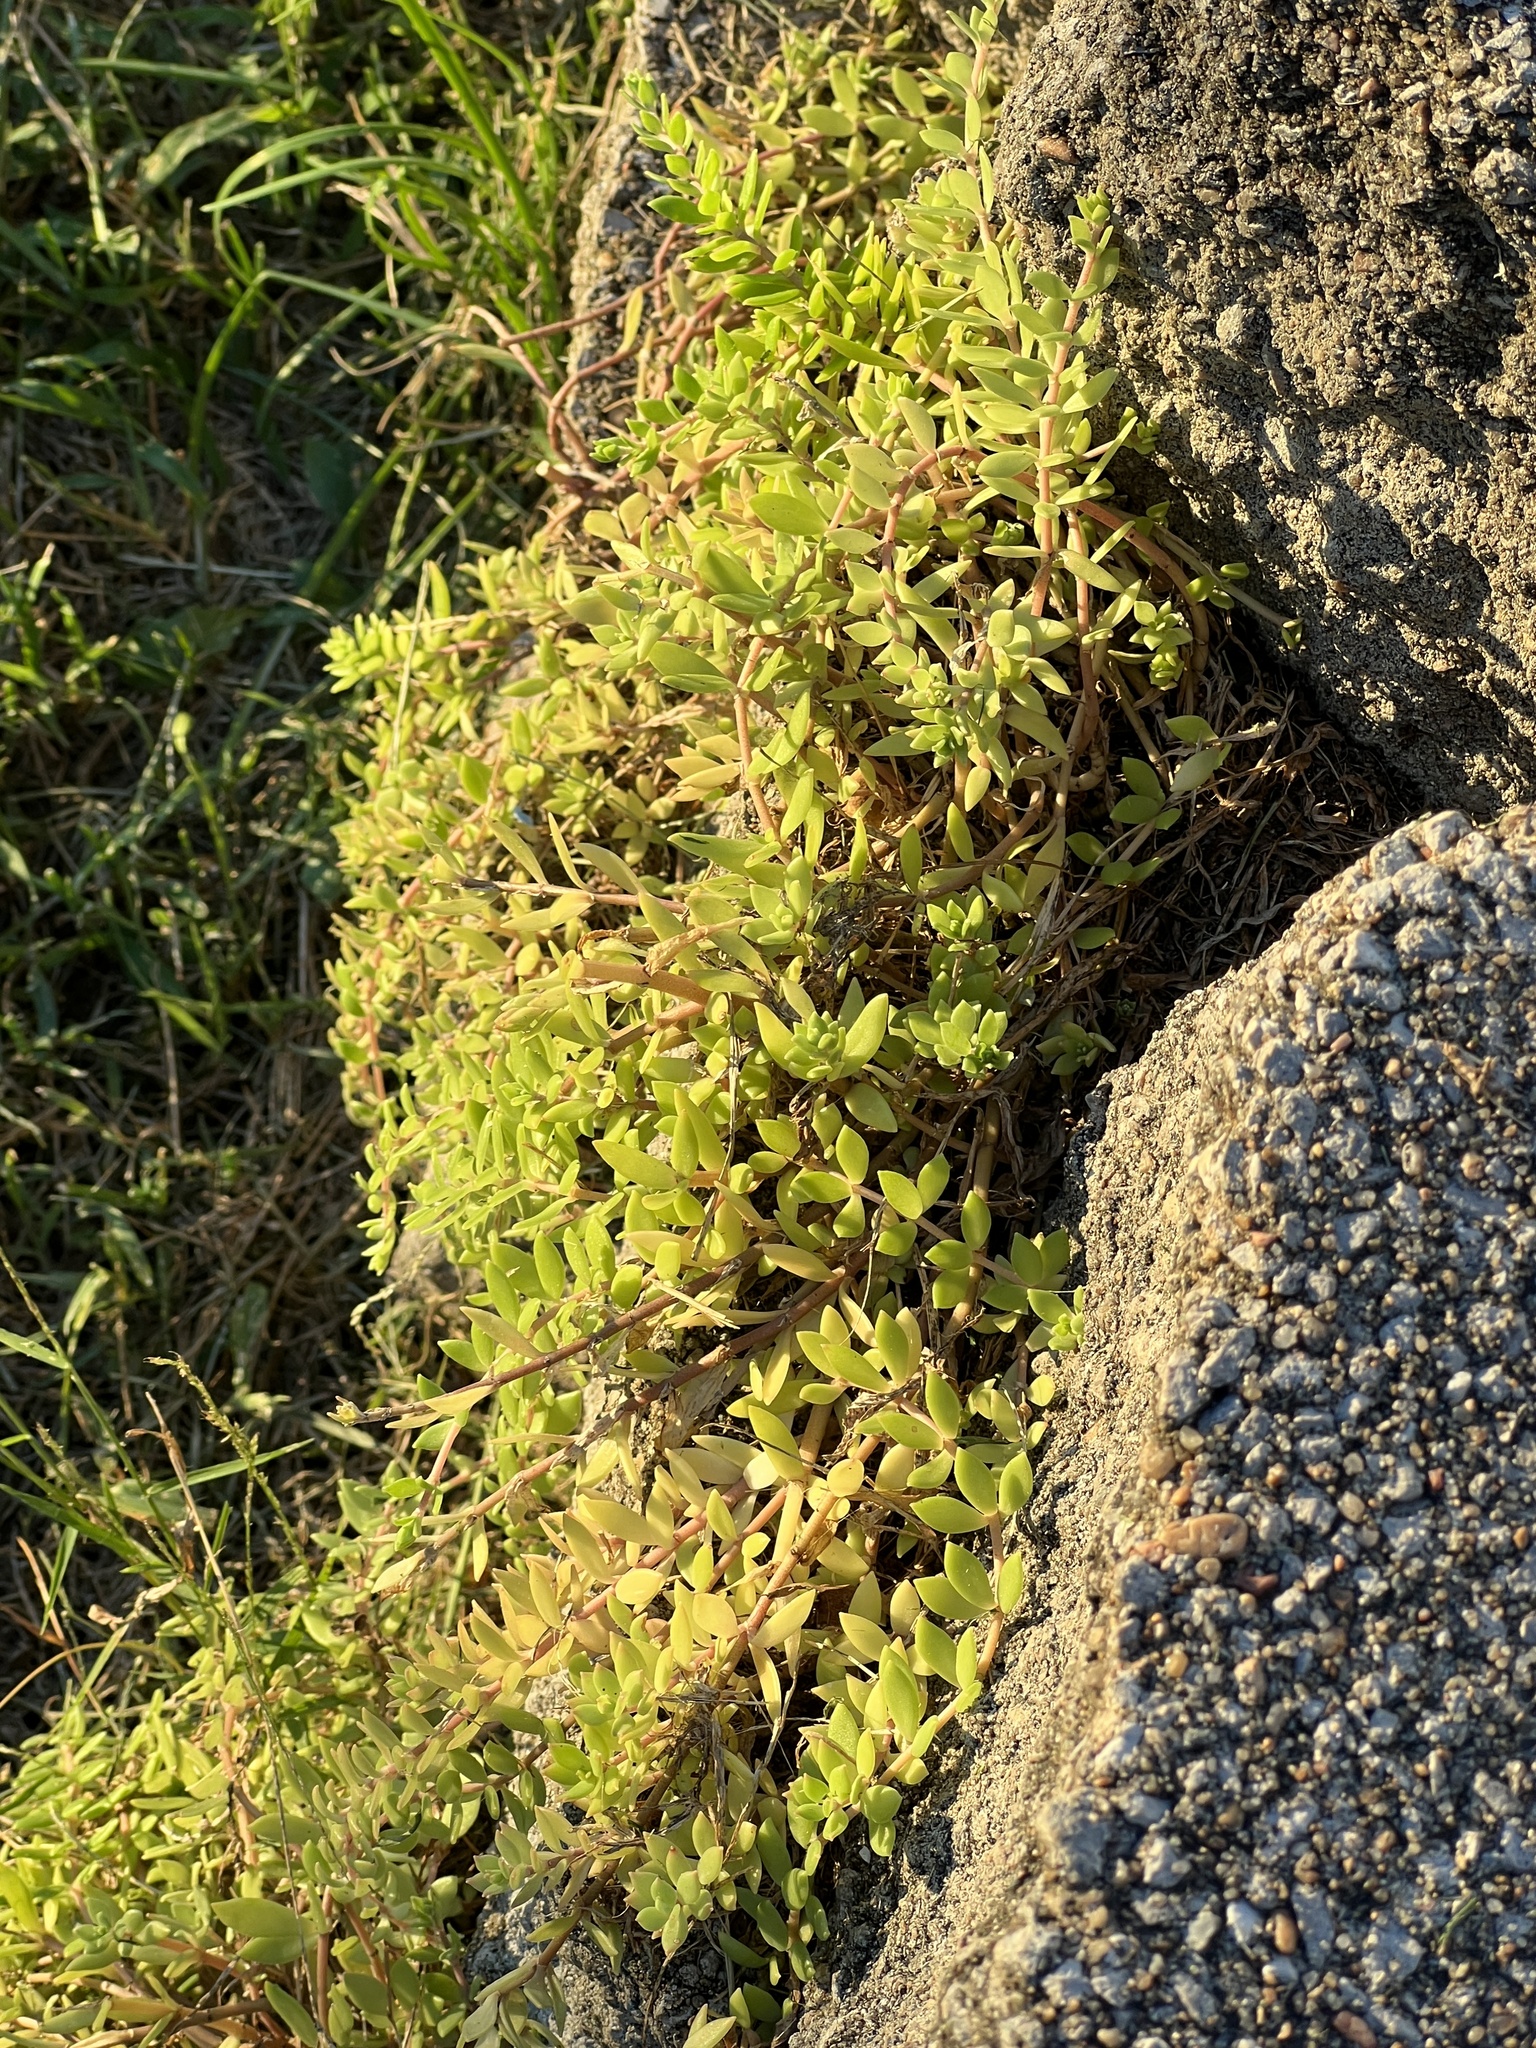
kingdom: Plantae
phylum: Tracheophyta
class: Magnoliopsida
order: Saxifragales
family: Crassulaceae
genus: Sedum
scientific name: Sedum sarmentosum
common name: Stringy stonecrop
